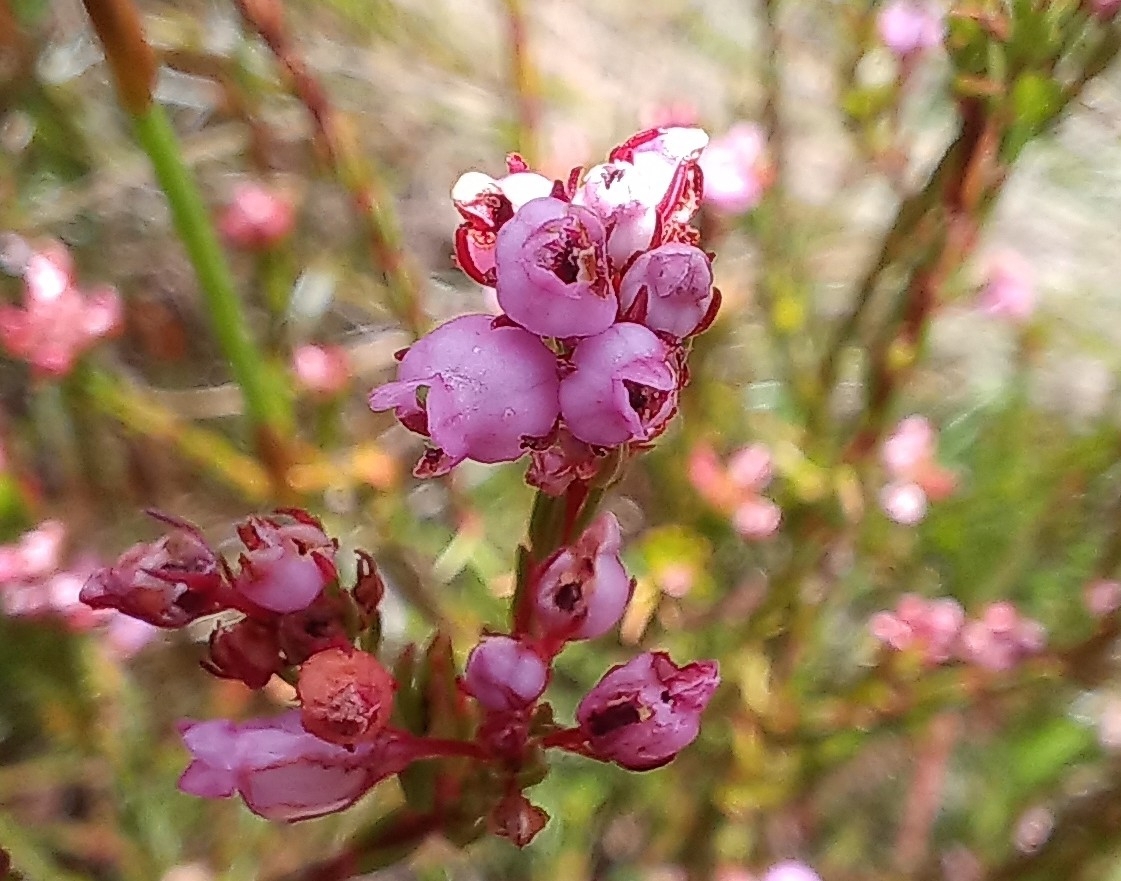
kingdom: Plantae
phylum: Tracheophyta
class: Magnoliopsida
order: Ericales
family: Ericaceae
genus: Erica
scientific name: Erica laeta
